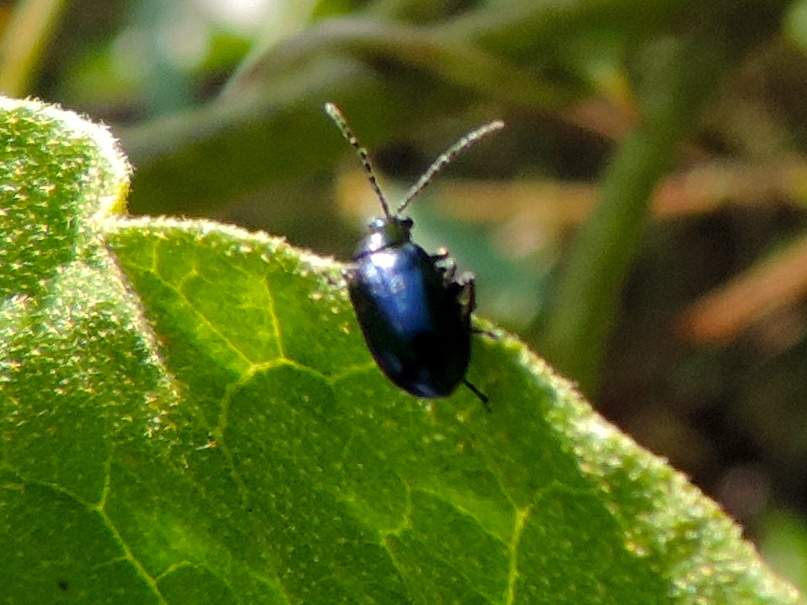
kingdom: Animalia
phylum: Arthropoda
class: Insecta
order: Coleoptera
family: Chrysomelidae
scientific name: Chrysomelidae
